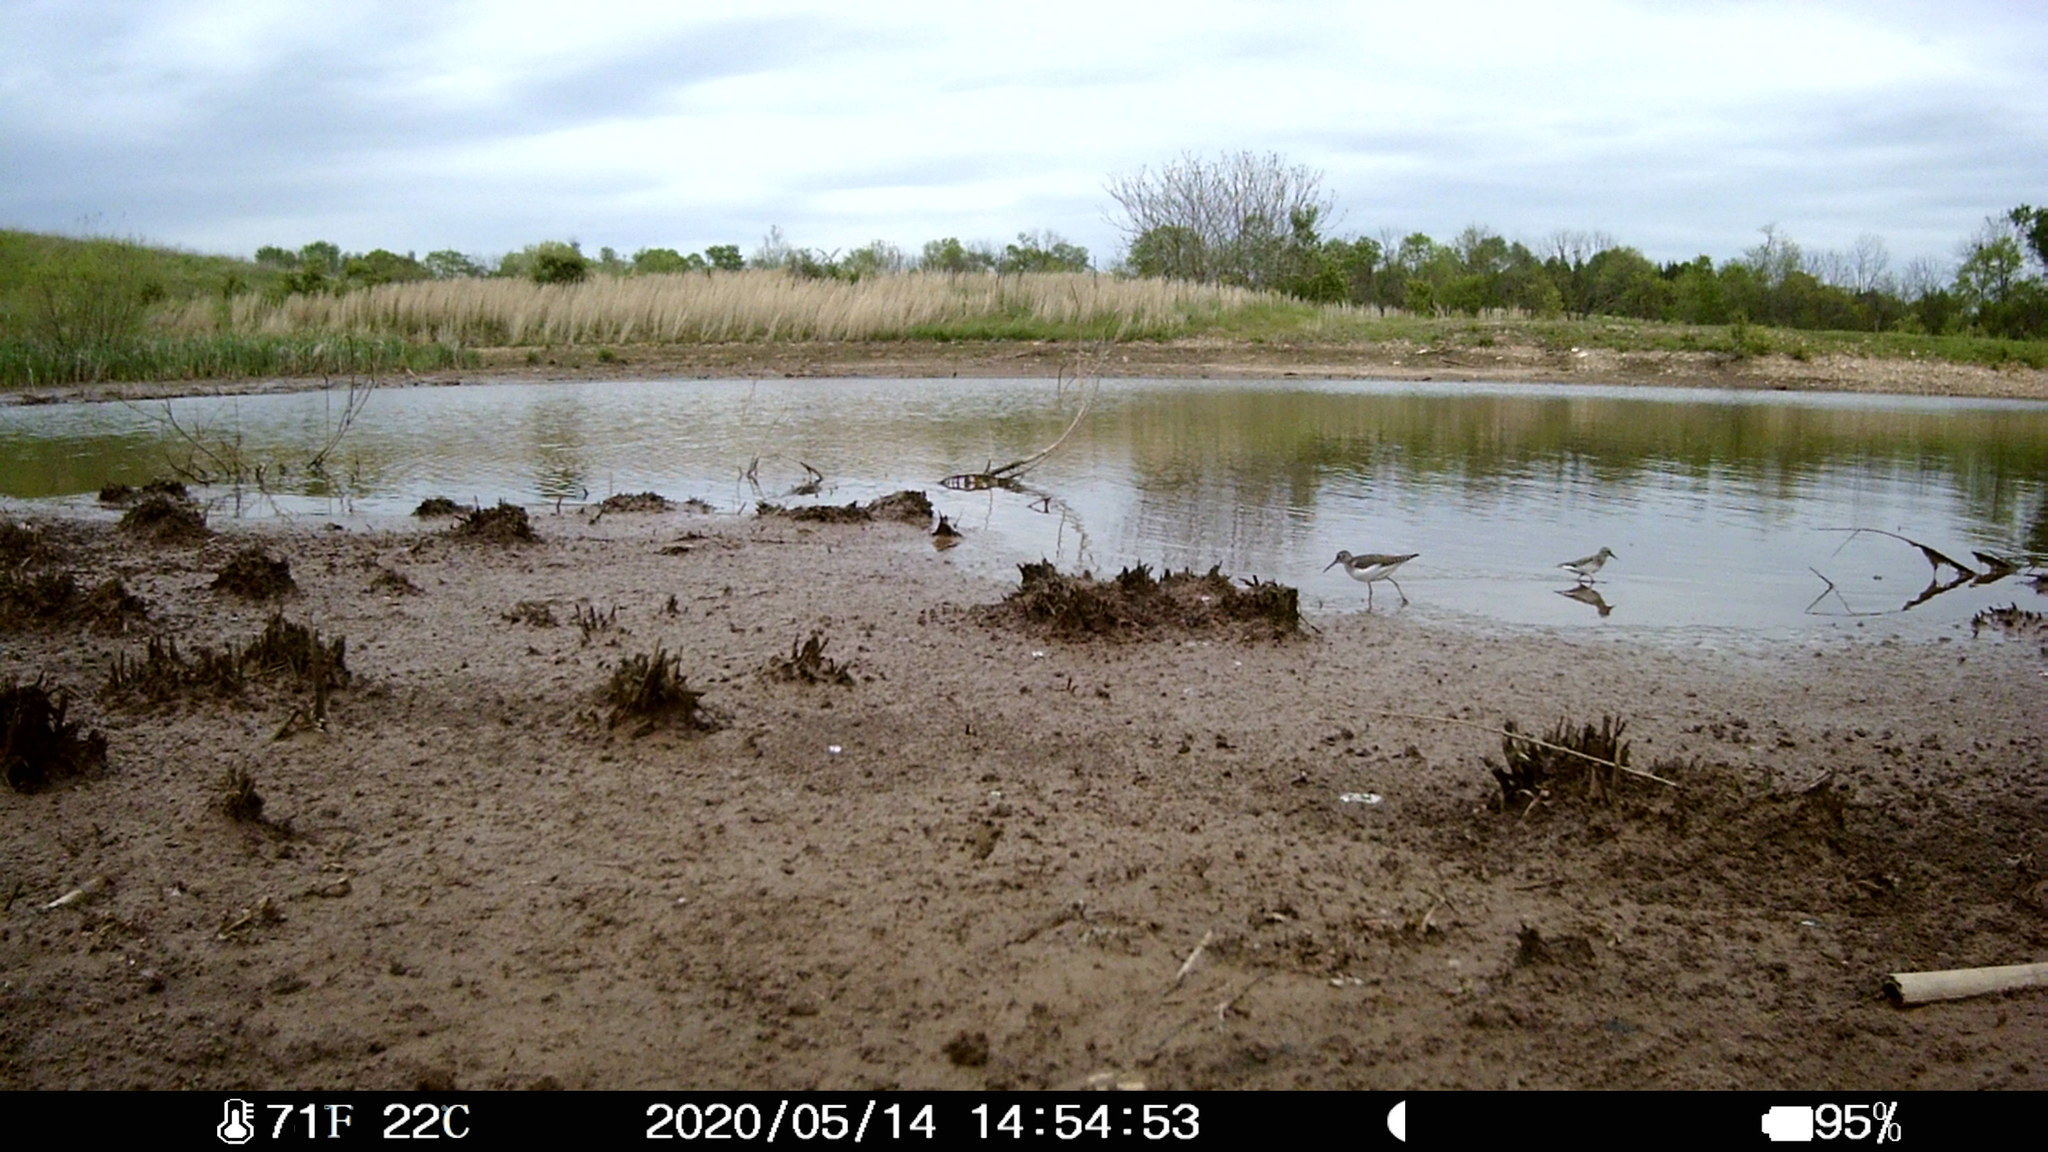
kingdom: Animalia
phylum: Chordata
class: Aves
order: Charadriiformes
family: Scolopacidae
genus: Tringa
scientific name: Tringa solitaria
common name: Solitary sandpiper
